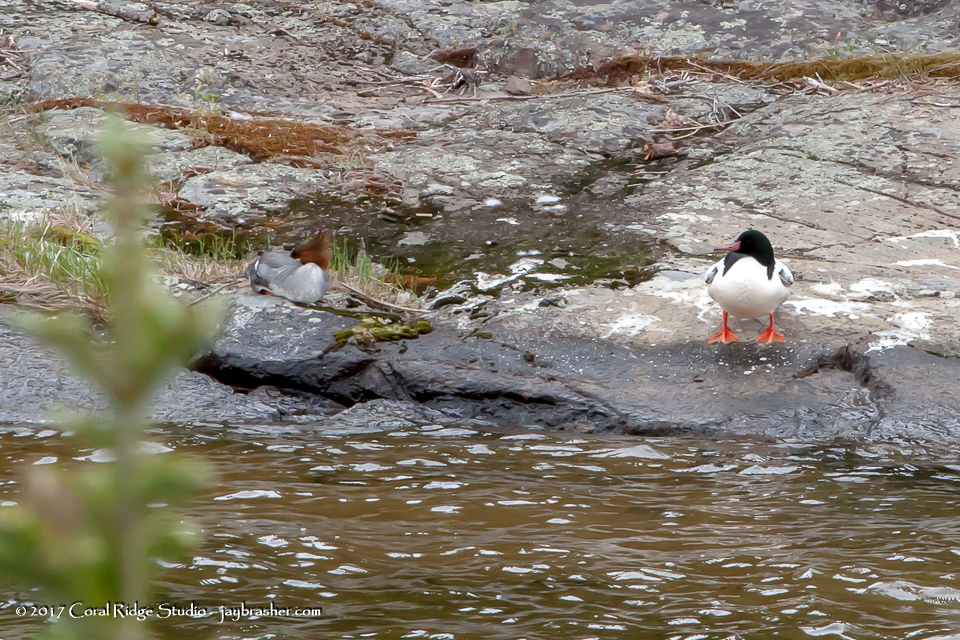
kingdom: Animalia
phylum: Chordata
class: Aves
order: Anseriformes
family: Anatidae
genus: Mergus
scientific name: Mergus merganser
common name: Common merganser
